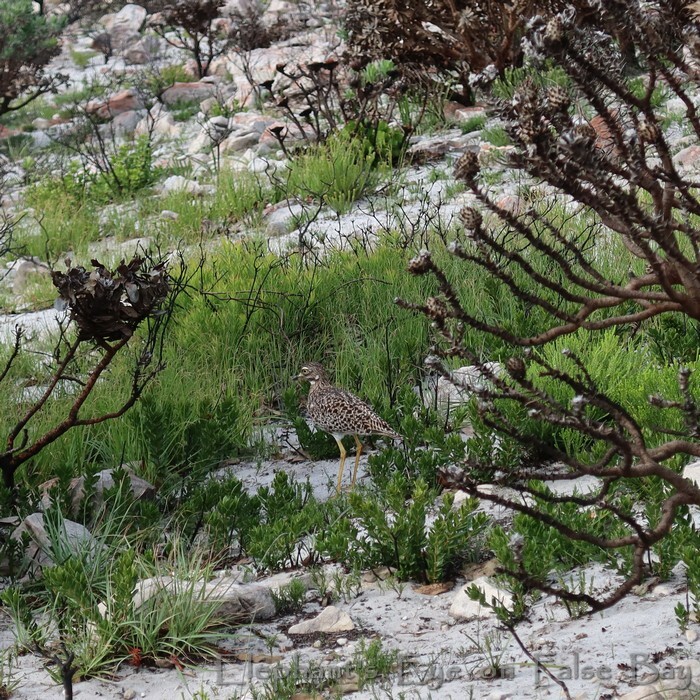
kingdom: Animalia
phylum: Chordata
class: Aves
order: Charadriiformes
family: Burhinidae
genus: Burhinus
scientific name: Burhinus capensis
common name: Spotted thick-knee
